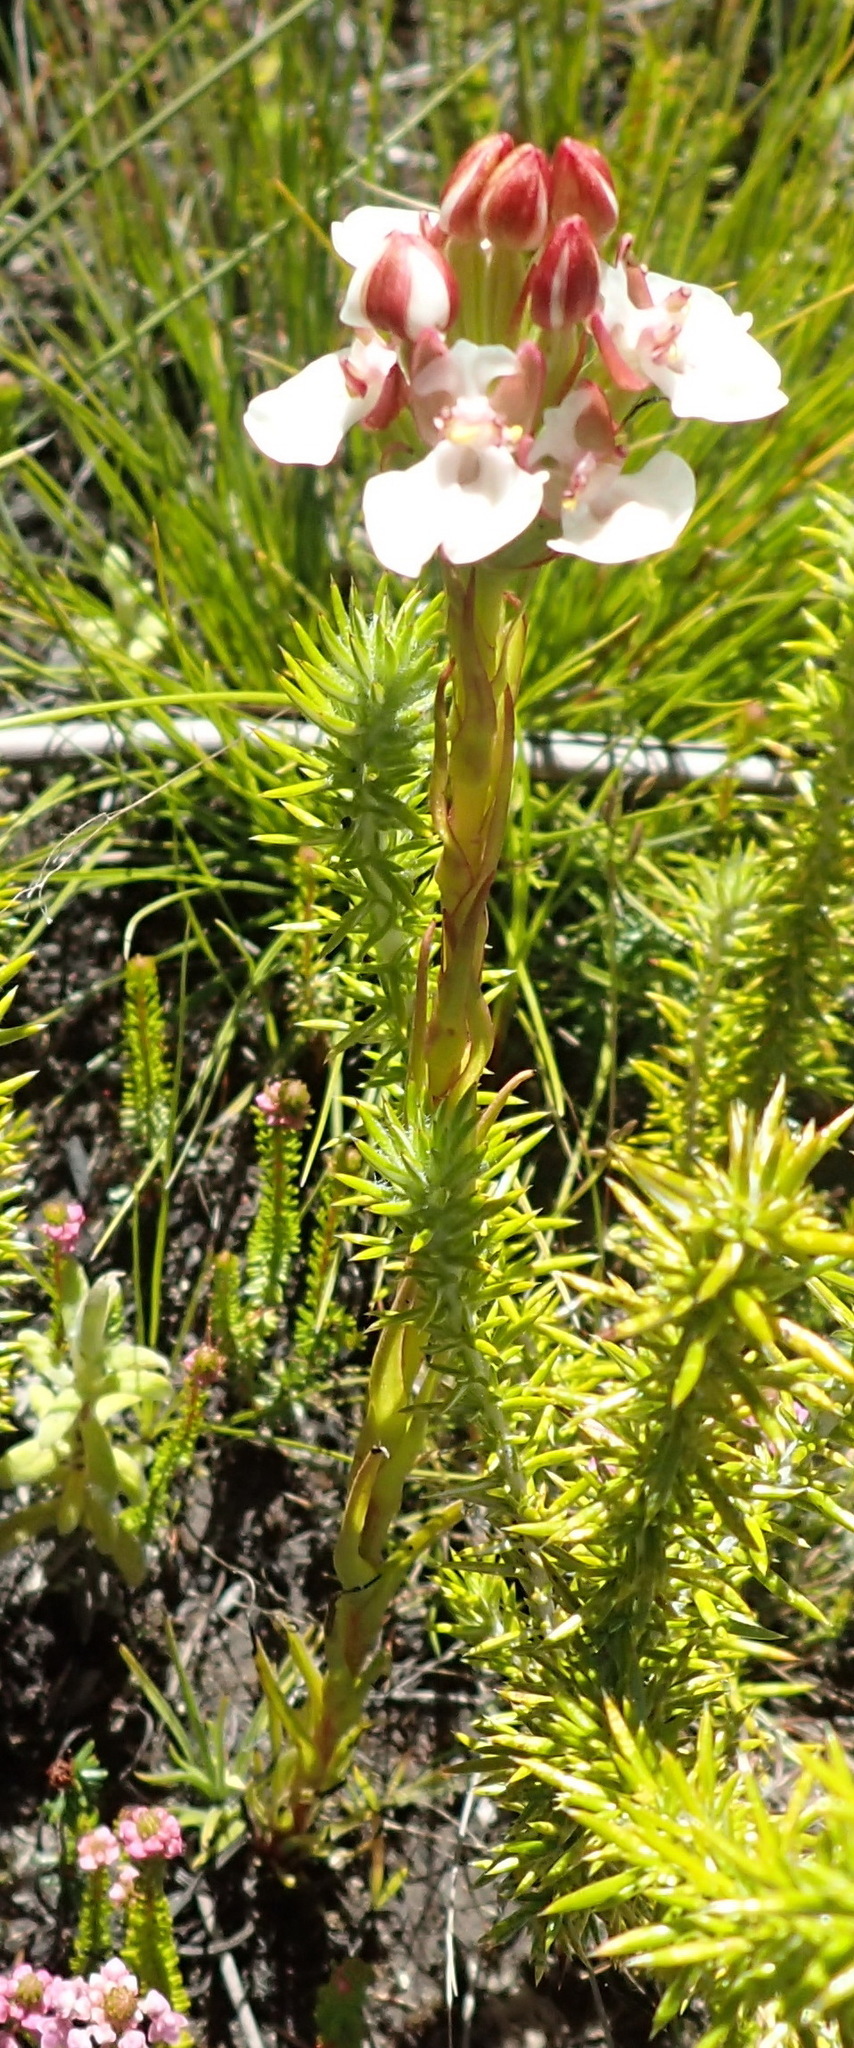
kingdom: Plantae
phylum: Tracheophyta
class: Liliopsida
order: Asparagales
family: Orchidaceae
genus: Ceratandra
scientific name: Ceratandra globosa
